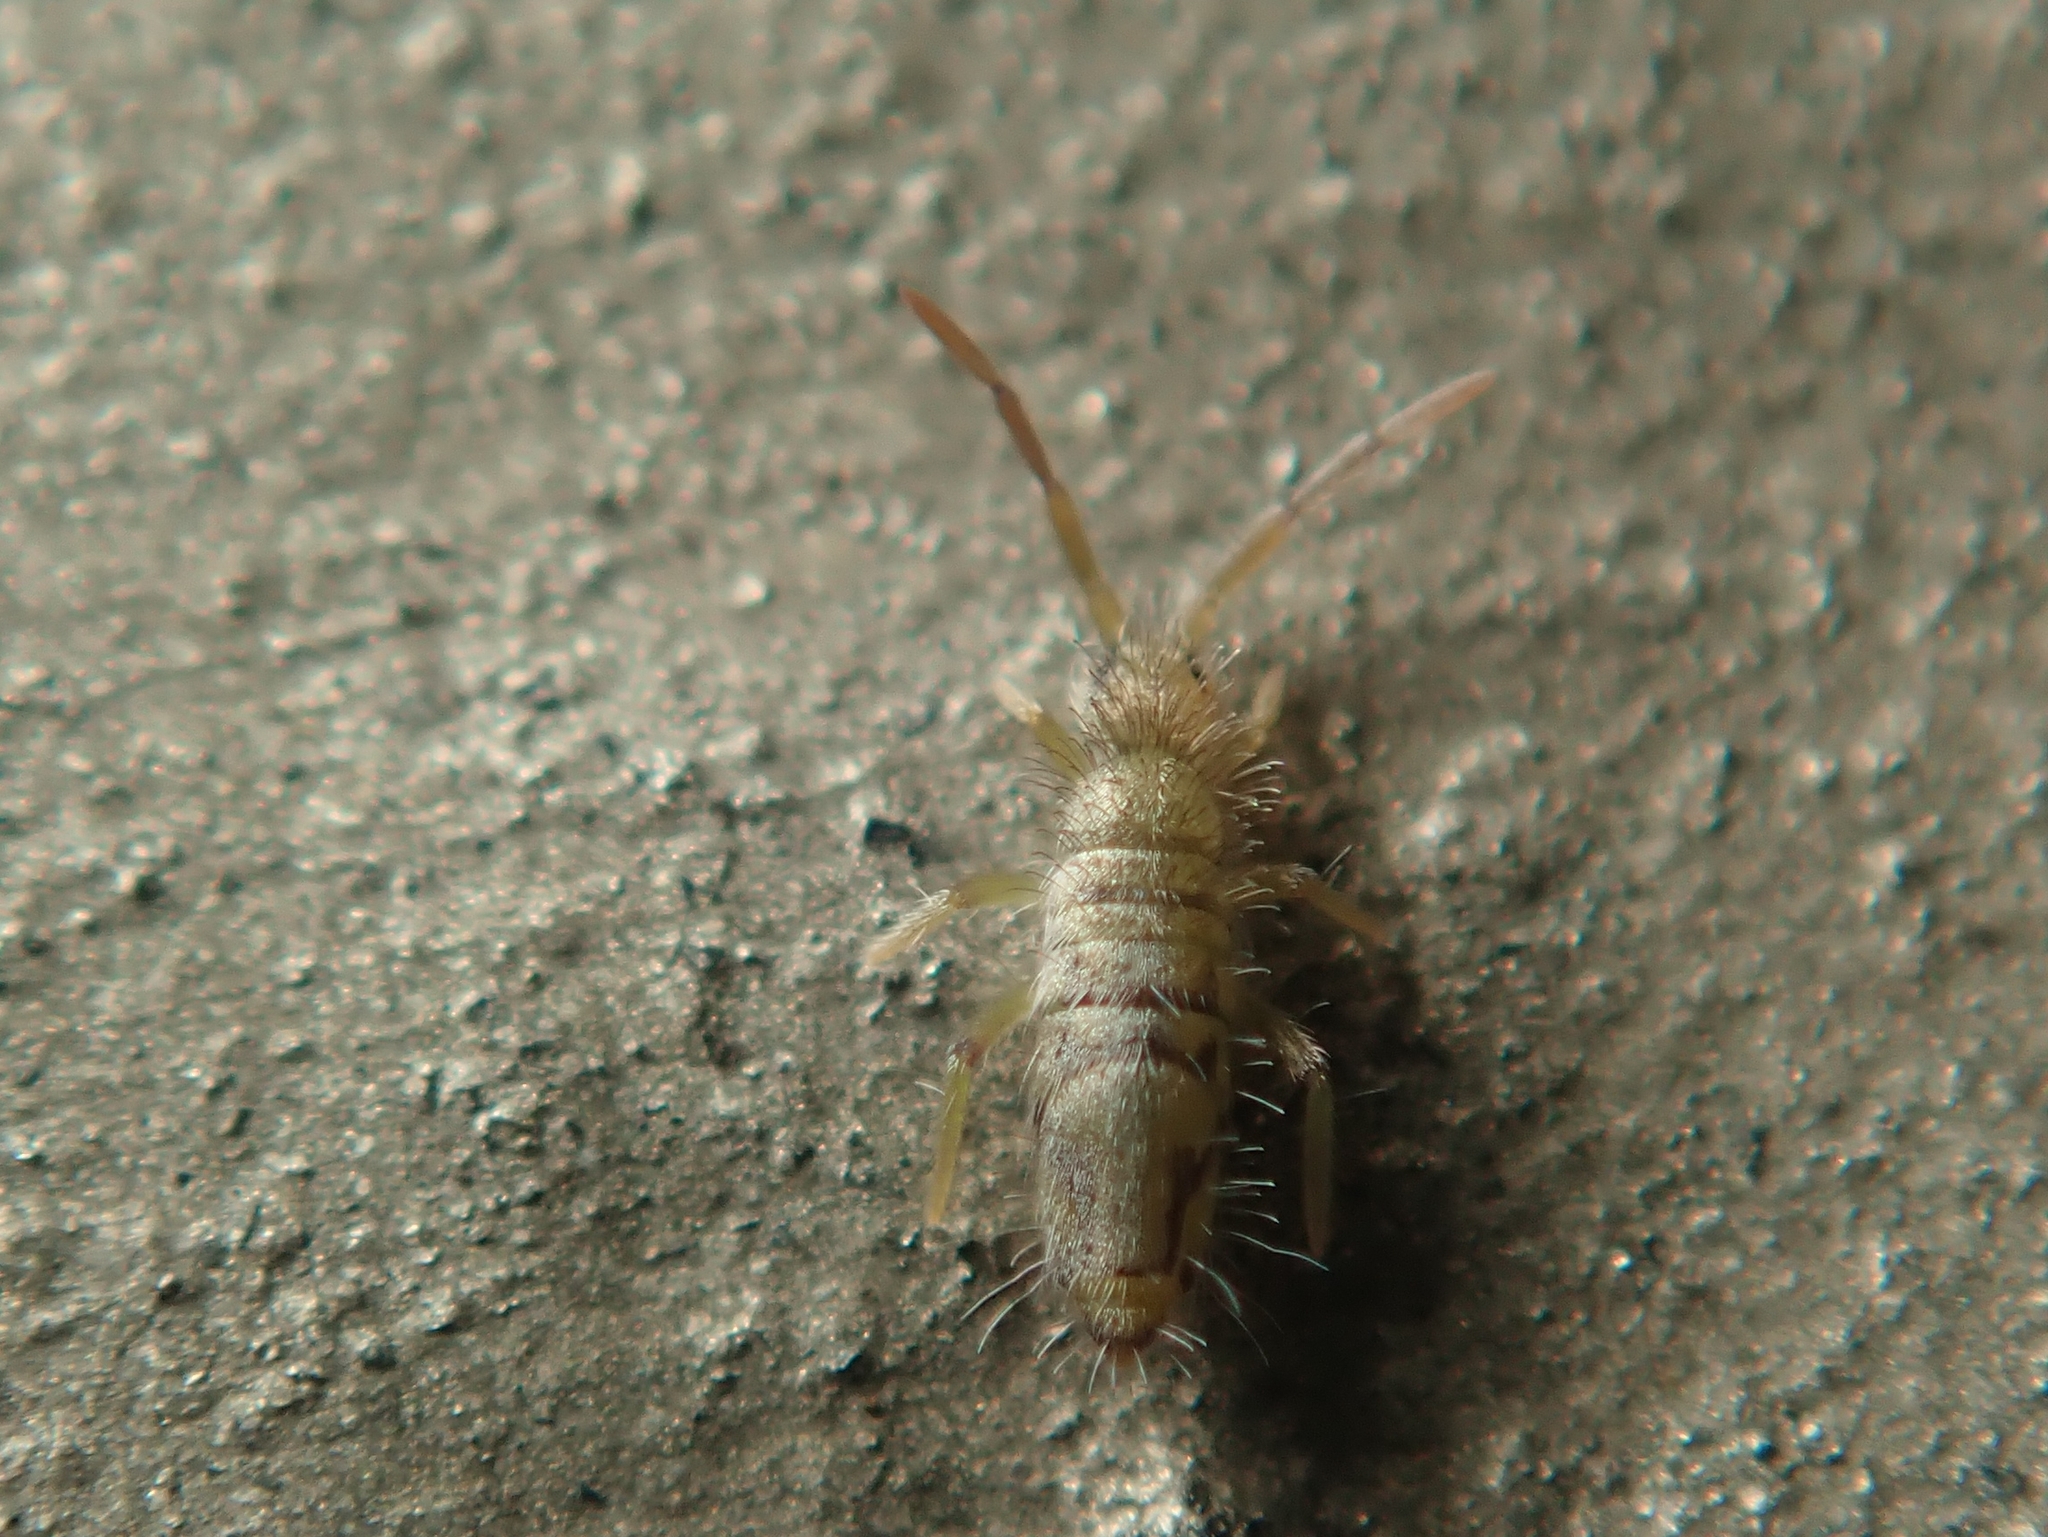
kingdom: Animalia
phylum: Arthropoda
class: Collembola
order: Entomobryomorpha
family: Entomobryidae
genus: Entomobrya
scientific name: Entomobrya nivalis
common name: Cosmopolitan springtail
